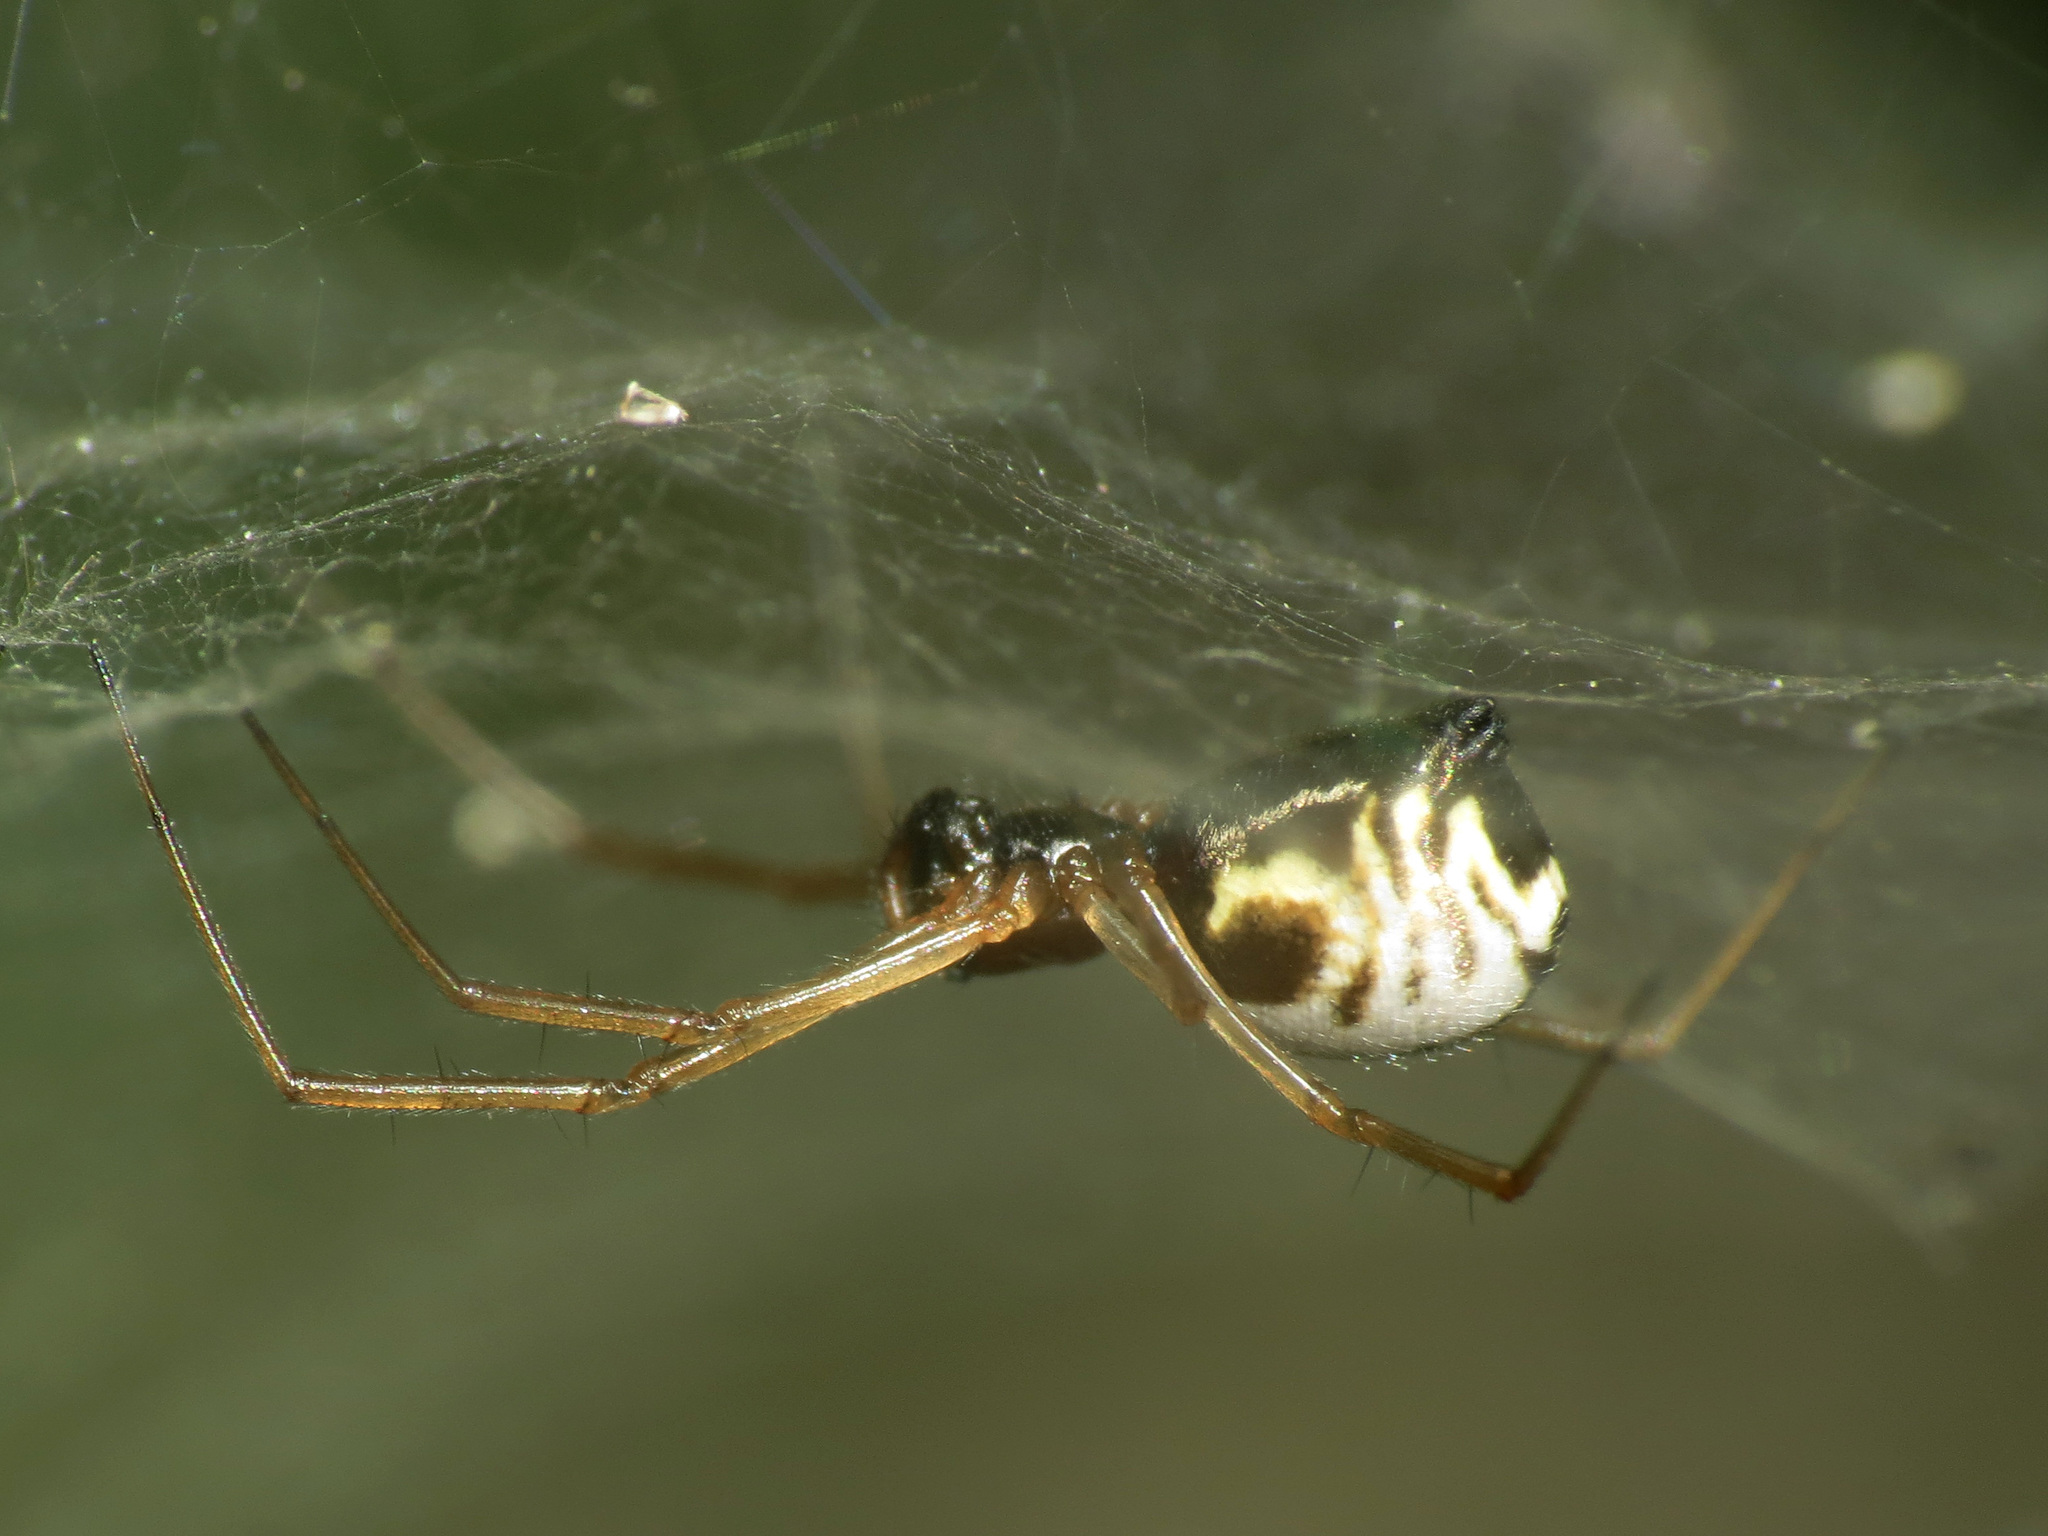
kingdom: Animalia
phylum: Arthropoda
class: Arachnida
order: Araneae
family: Linyphiidae
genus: Frontinella
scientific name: Frontinella pyramitela
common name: Bowl-and-doily spider
